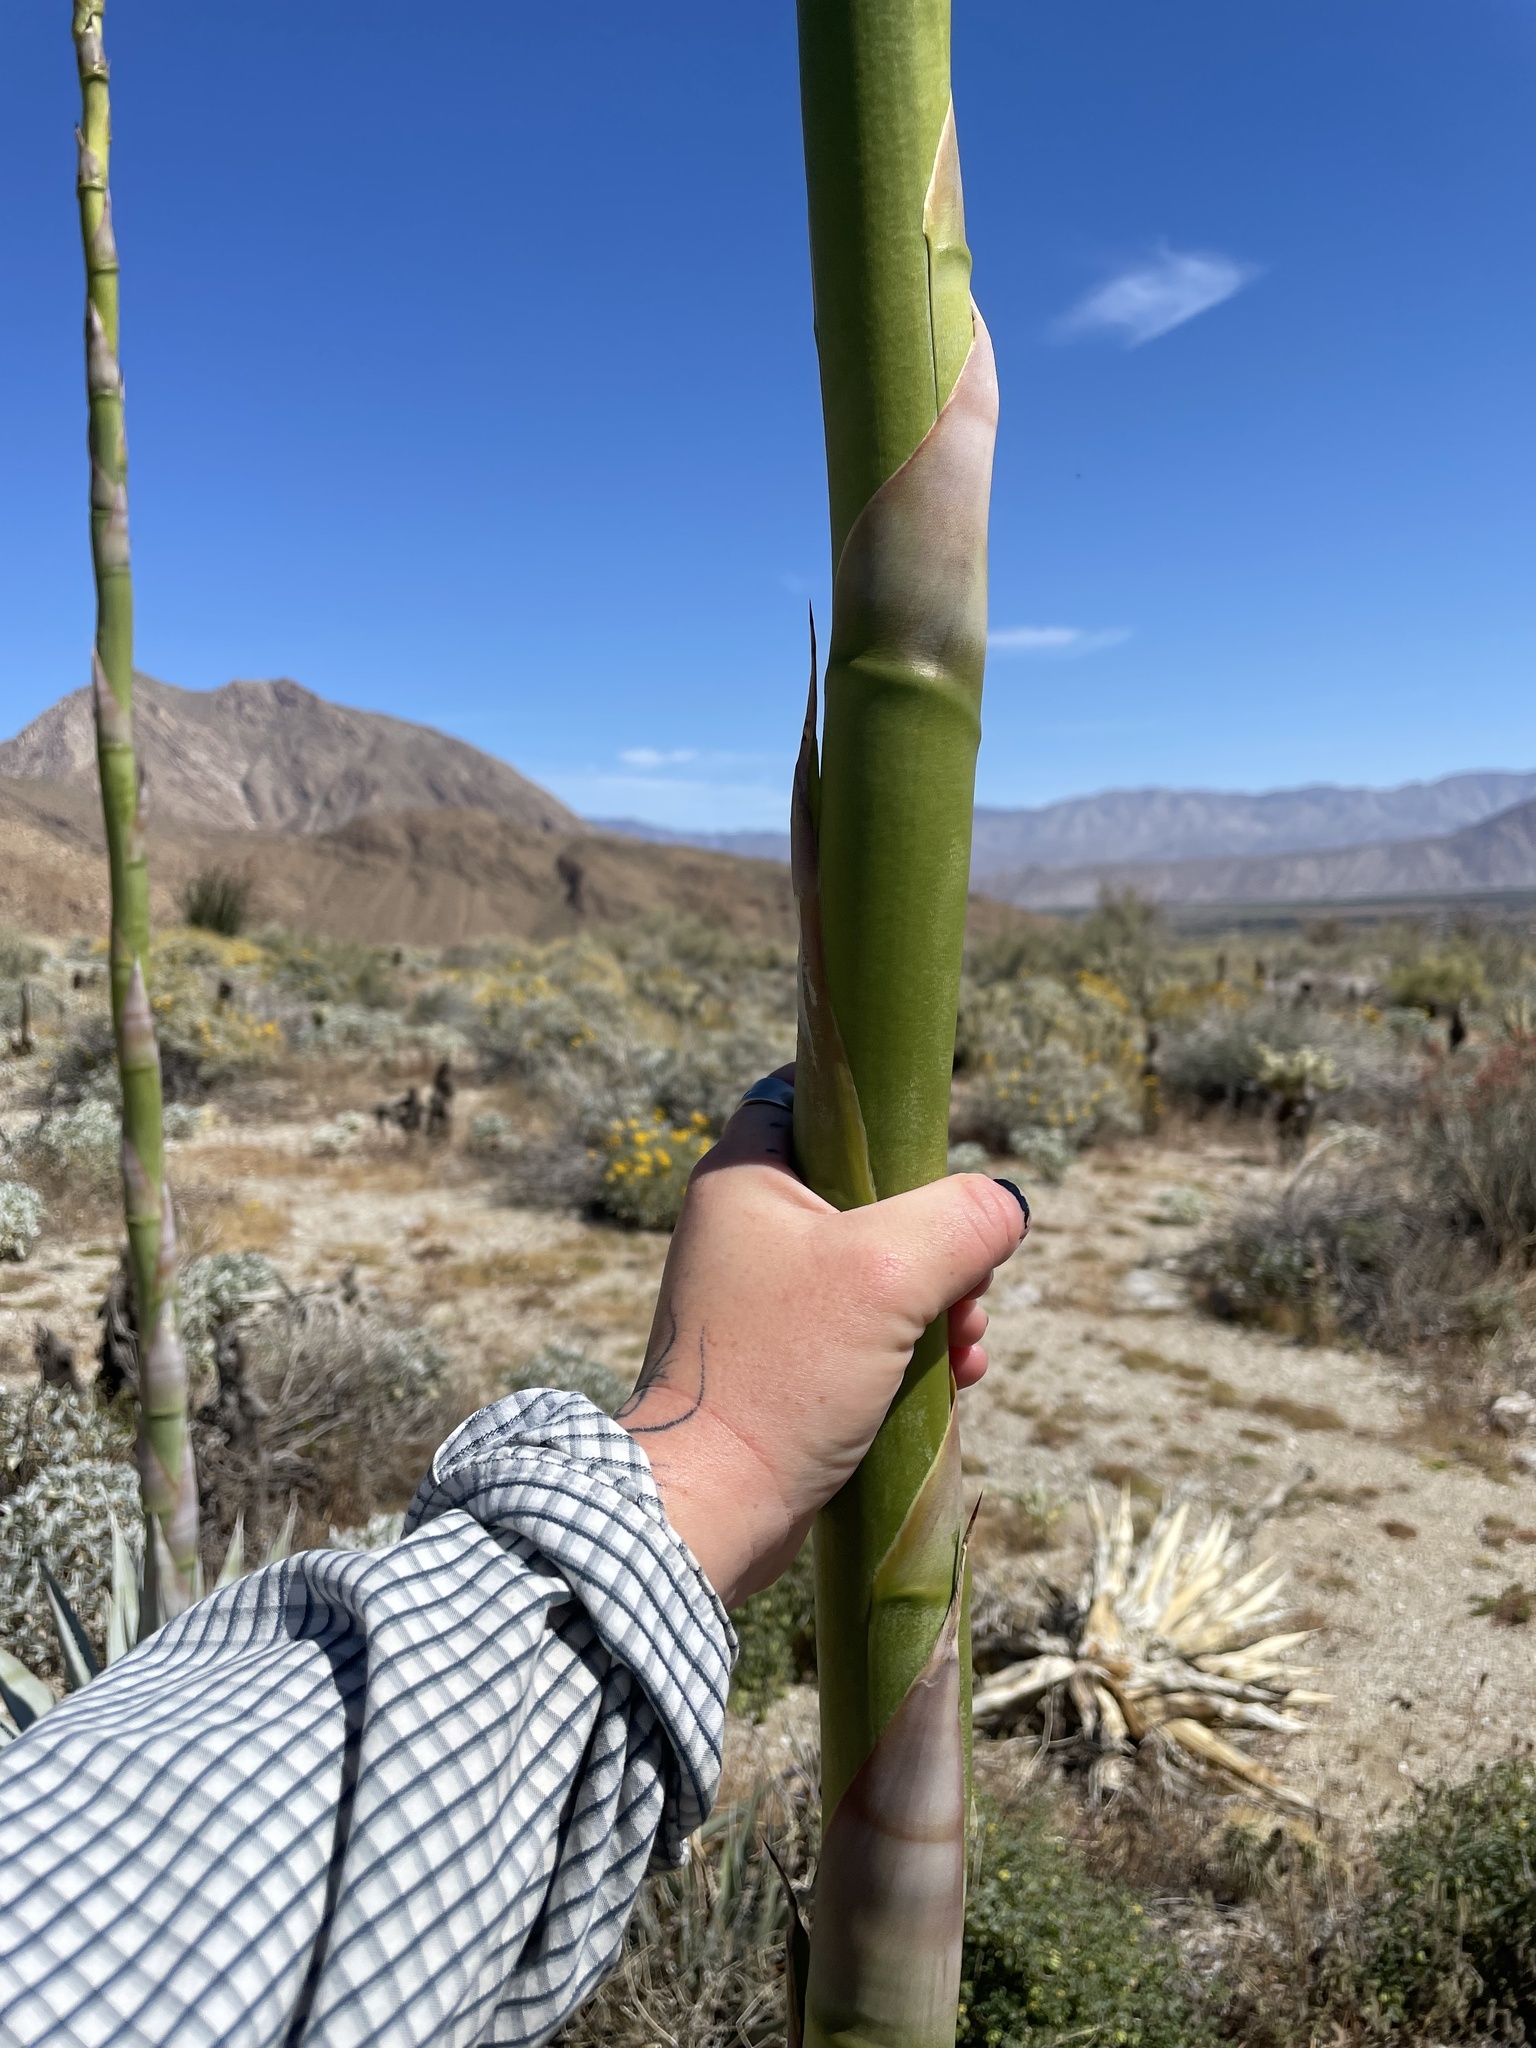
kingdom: Plantae
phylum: Tracheophyta
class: Liliopsida
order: Asparagales
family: Asparagaceae
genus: Agave
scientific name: Agave deserti
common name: Desert agave
